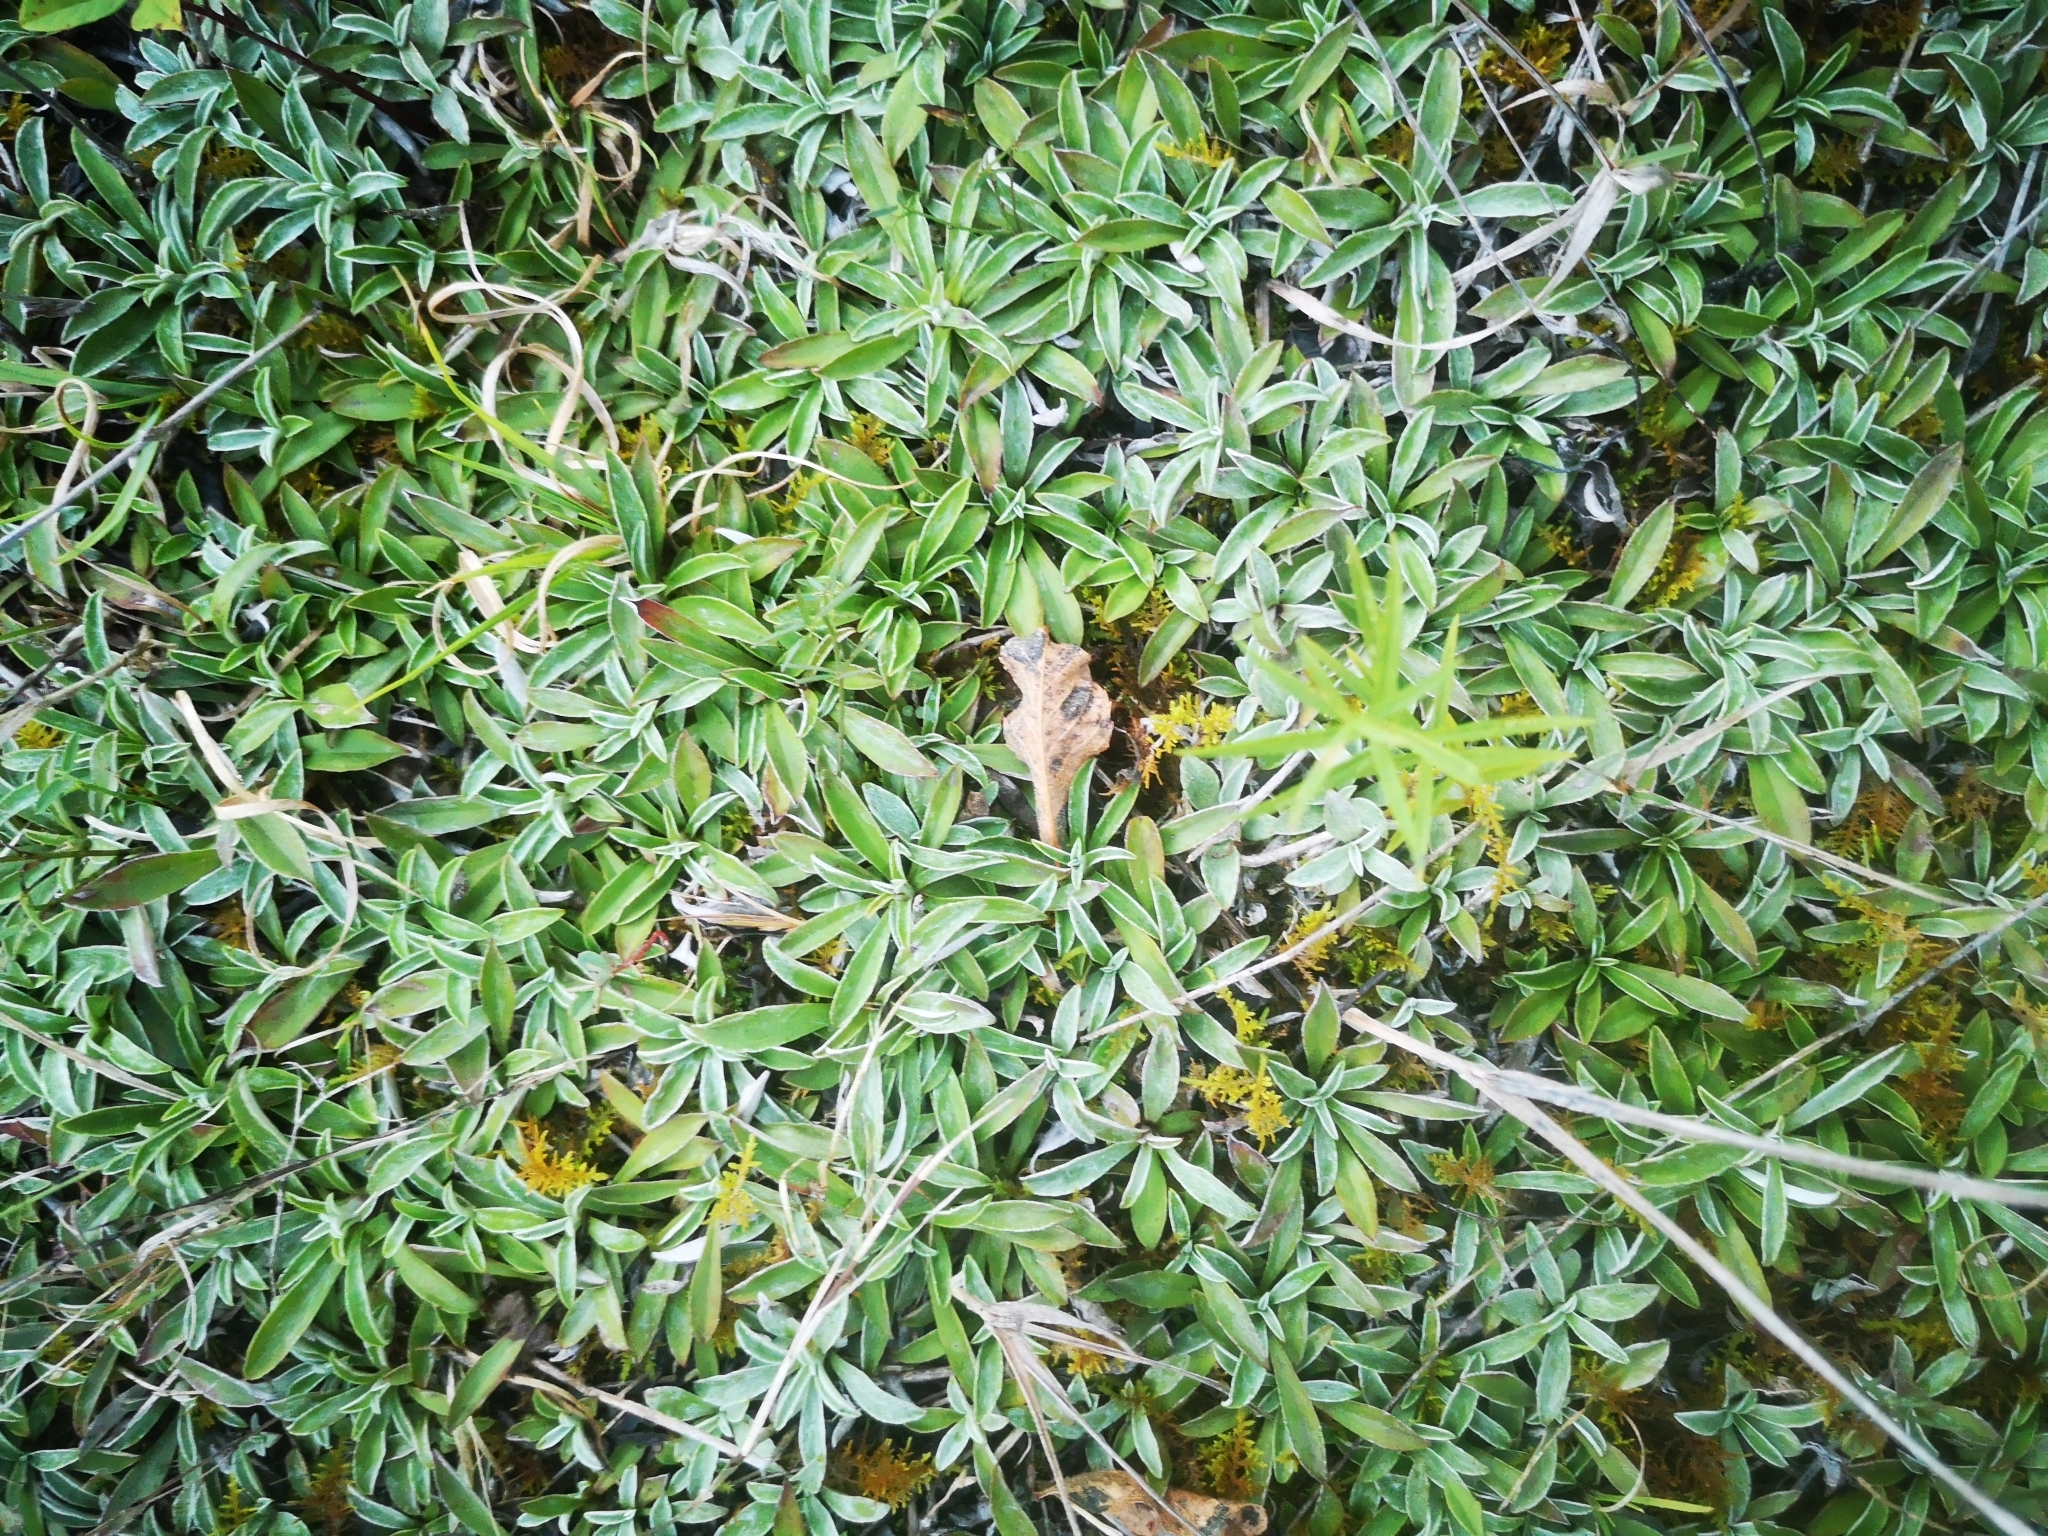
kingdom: Plantae
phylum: Tracheophyta
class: Magnoliopsida
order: Asterales
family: Asteraceae
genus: Antennaria
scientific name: Antennaria neglecta
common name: Field pussytoes
